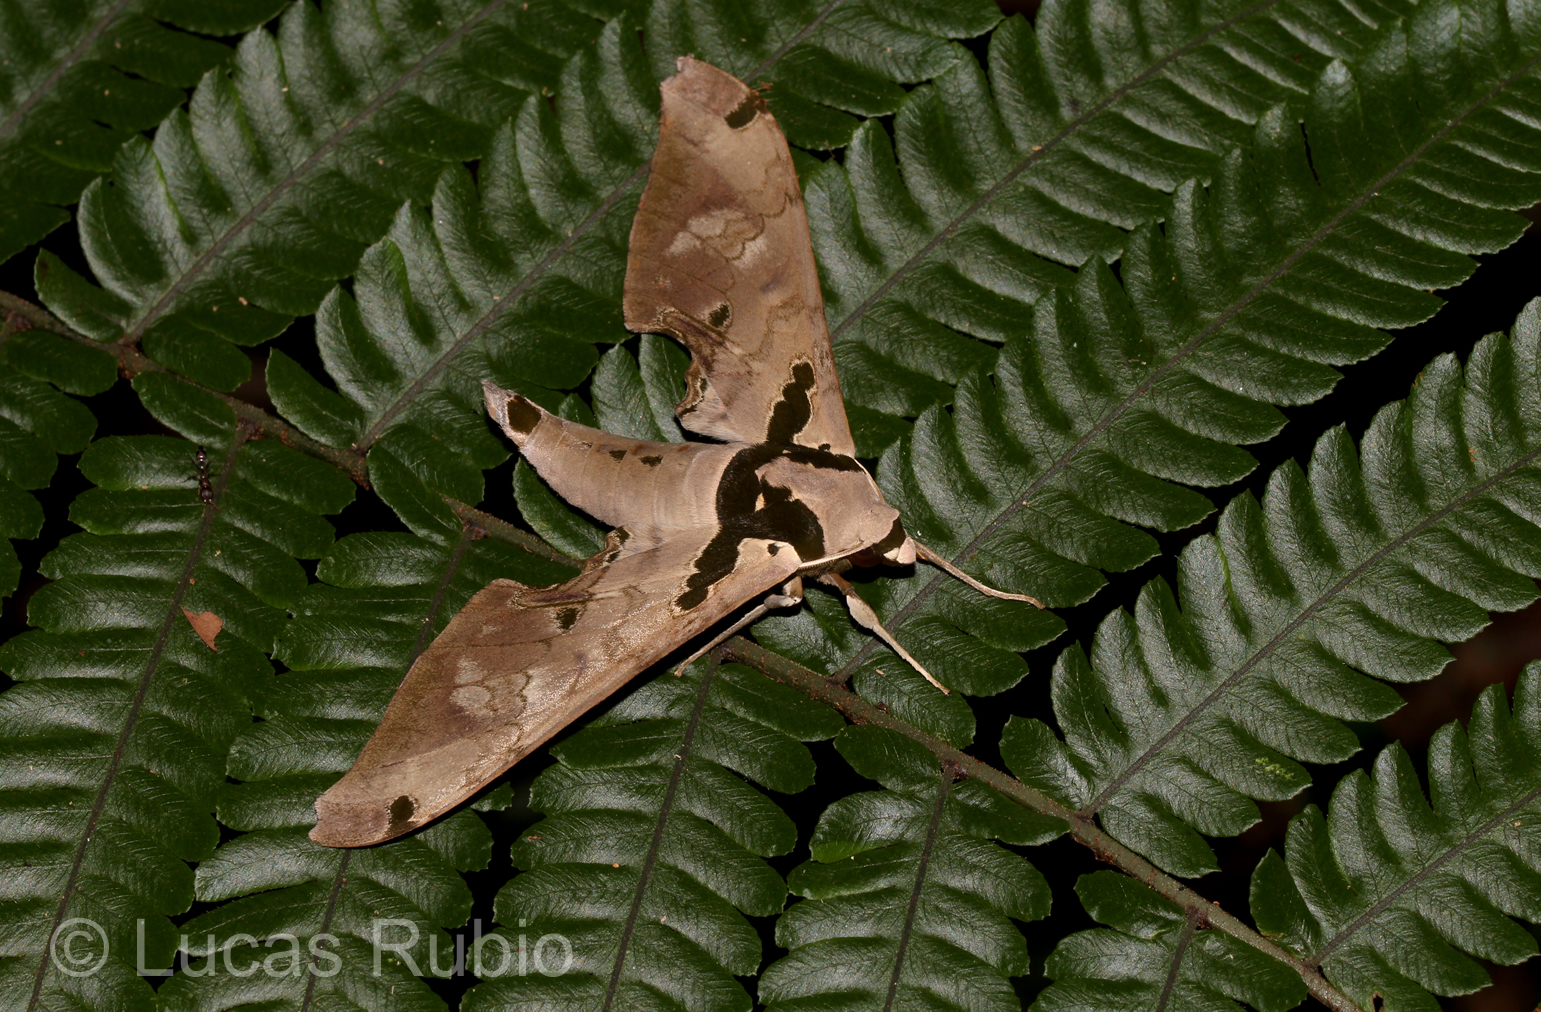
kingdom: Animalia
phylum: Arthropoda
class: Insecta
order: Lepidoptera
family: Sphingidae
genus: Adhemarius
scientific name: Adhemarius daphne
